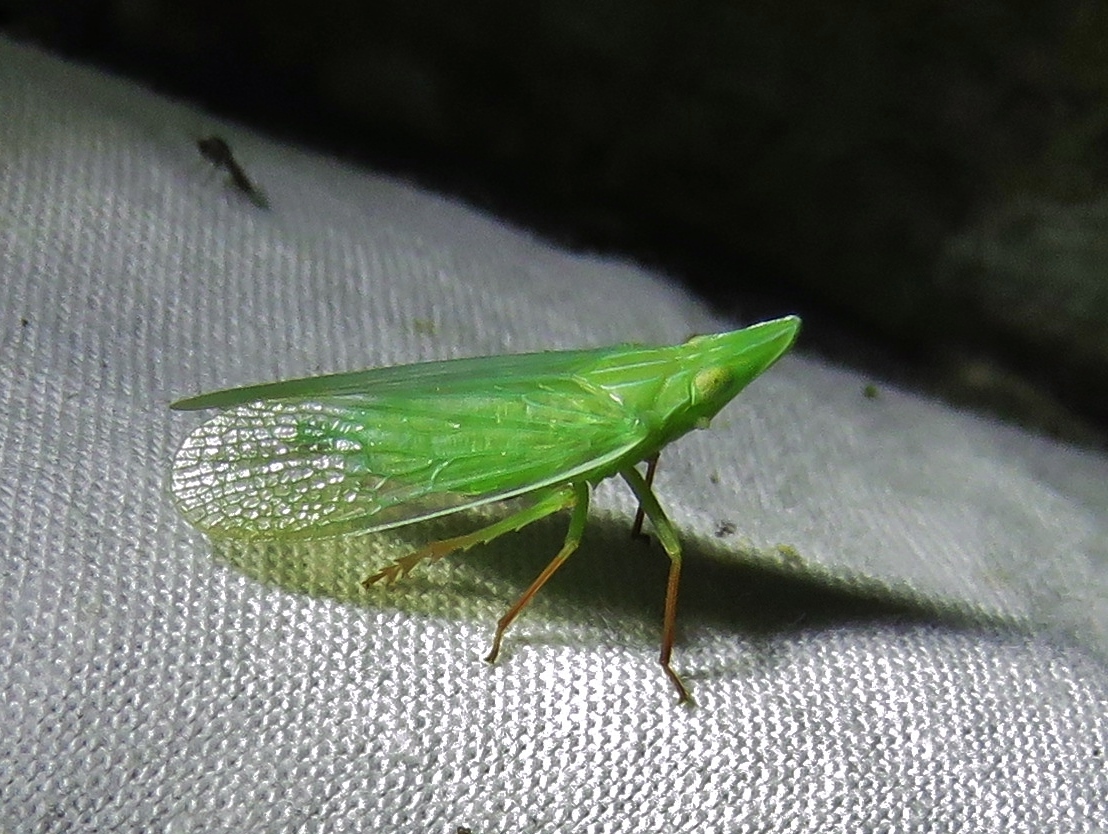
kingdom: Animalia
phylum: Arthropoda
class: Insecta
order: Hemiptera
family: Dictyopharidae
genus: Rhynchomitra
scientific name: Rhynchomitra recurva
